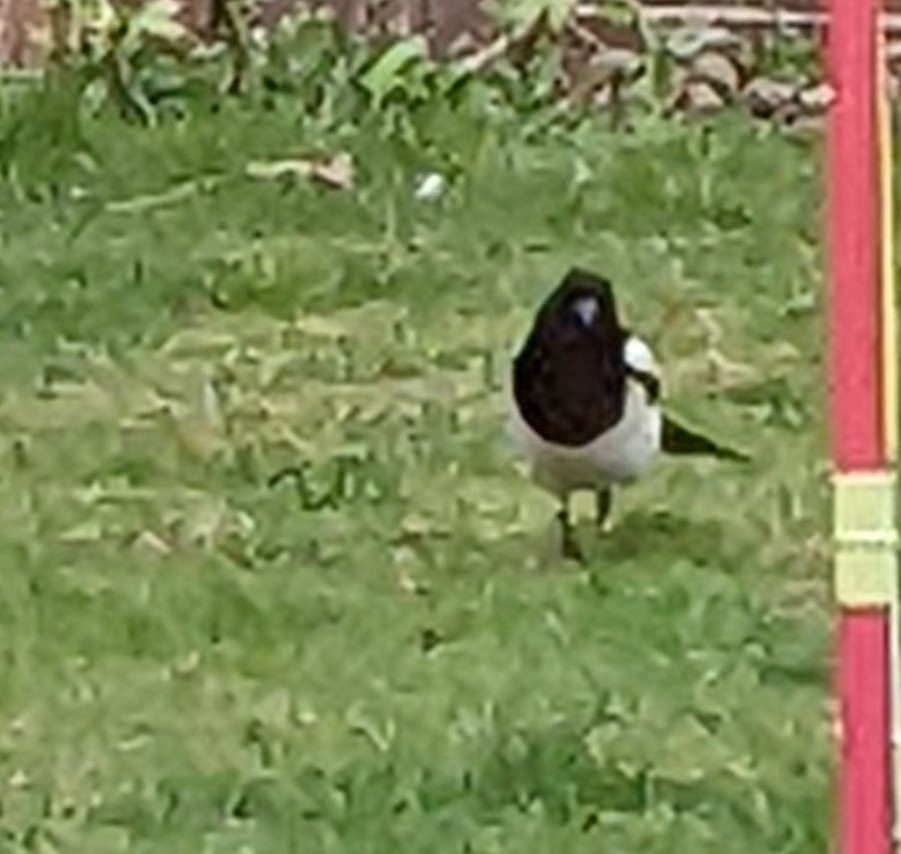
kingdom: Animalia
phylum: Chordata
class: Aves
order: Passeriformes
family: Corvidae
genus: Pica
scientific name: Pica pica
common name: Eurasian magpie
